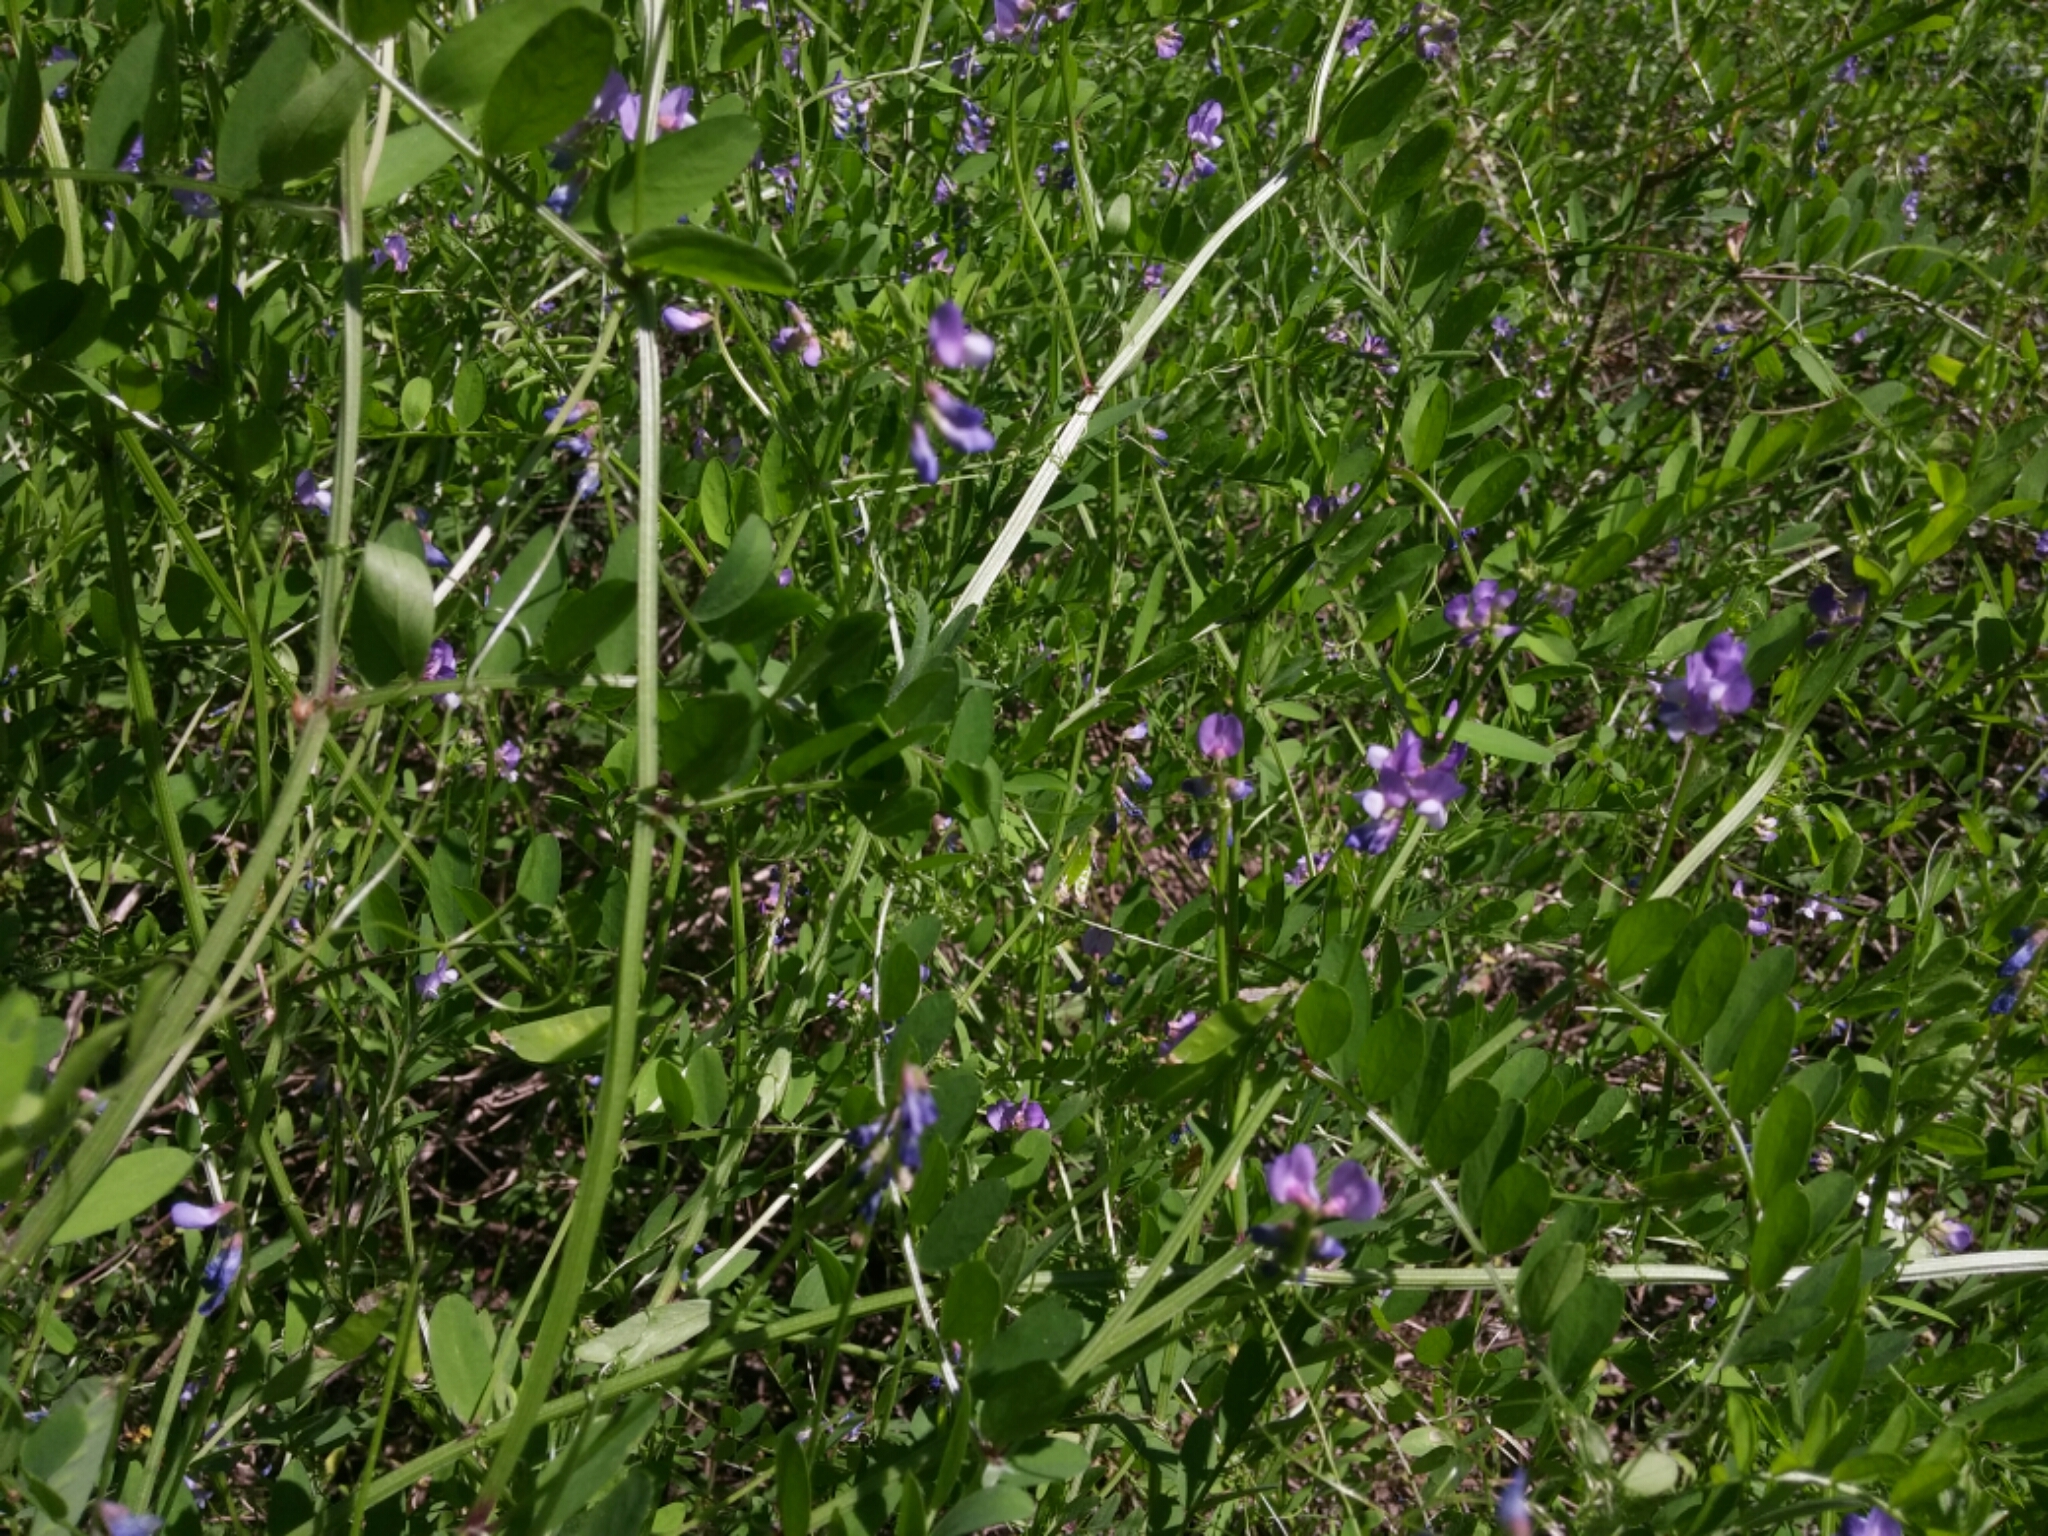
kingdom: Plantae
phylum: Tracheophyta
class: Magnoliopsida
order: Fabales
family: Fabaceae
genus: Vicia
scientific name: Vicia ludoviciana
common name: Louisiana vetch
